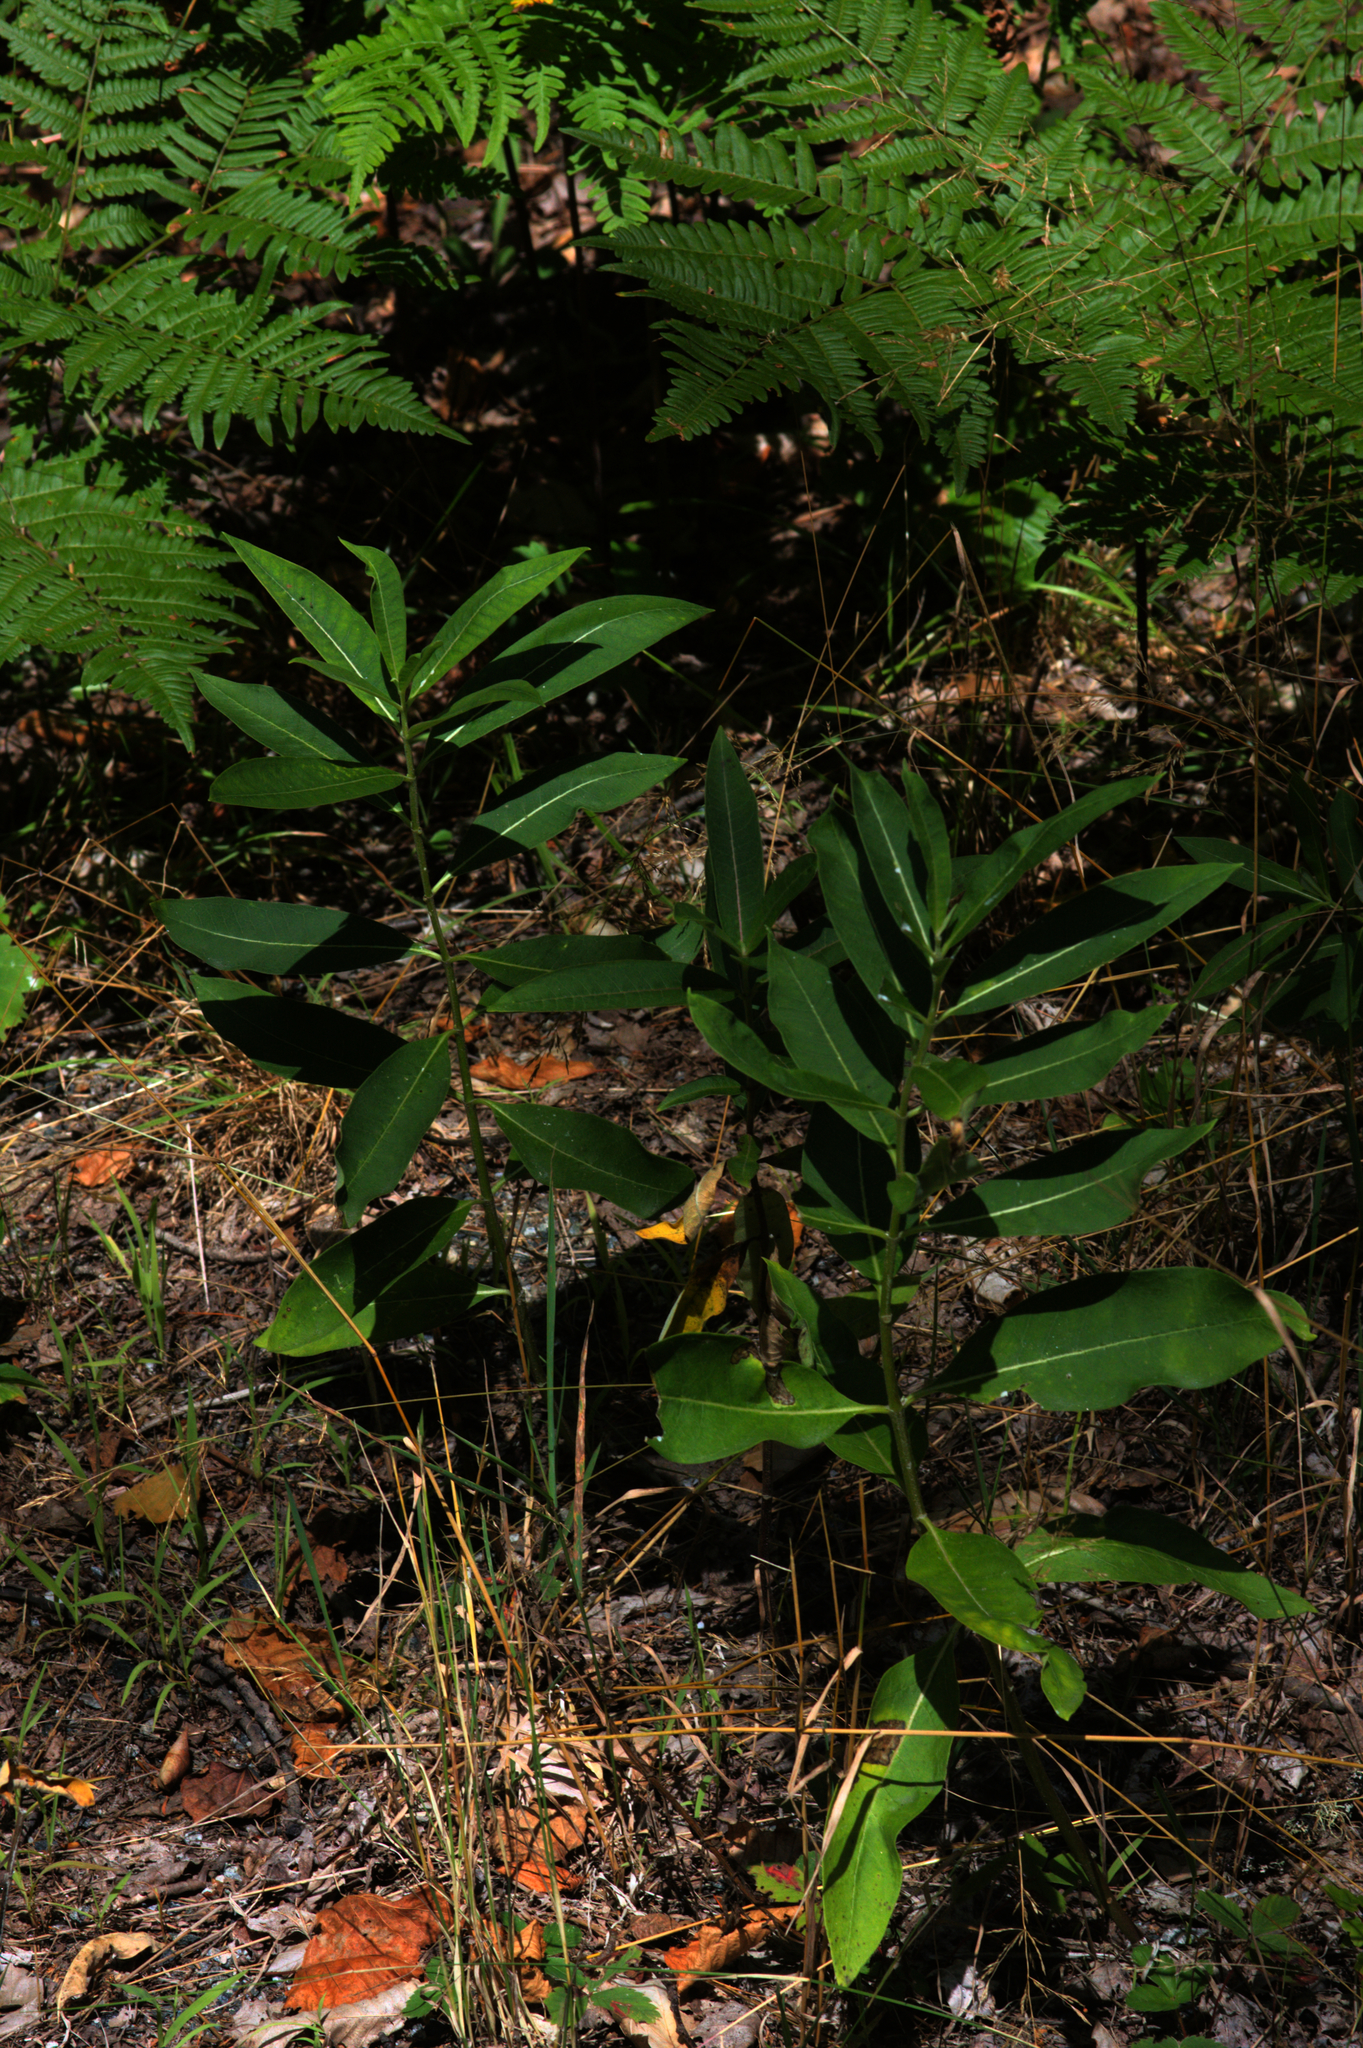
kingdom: Plantae
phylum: Tracheophyta
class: Polypodiopsida
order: Polypodiales
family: Dennstaedtiaceae
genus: Pteridium
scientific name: Pteridium aquilinum
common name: Bracken
